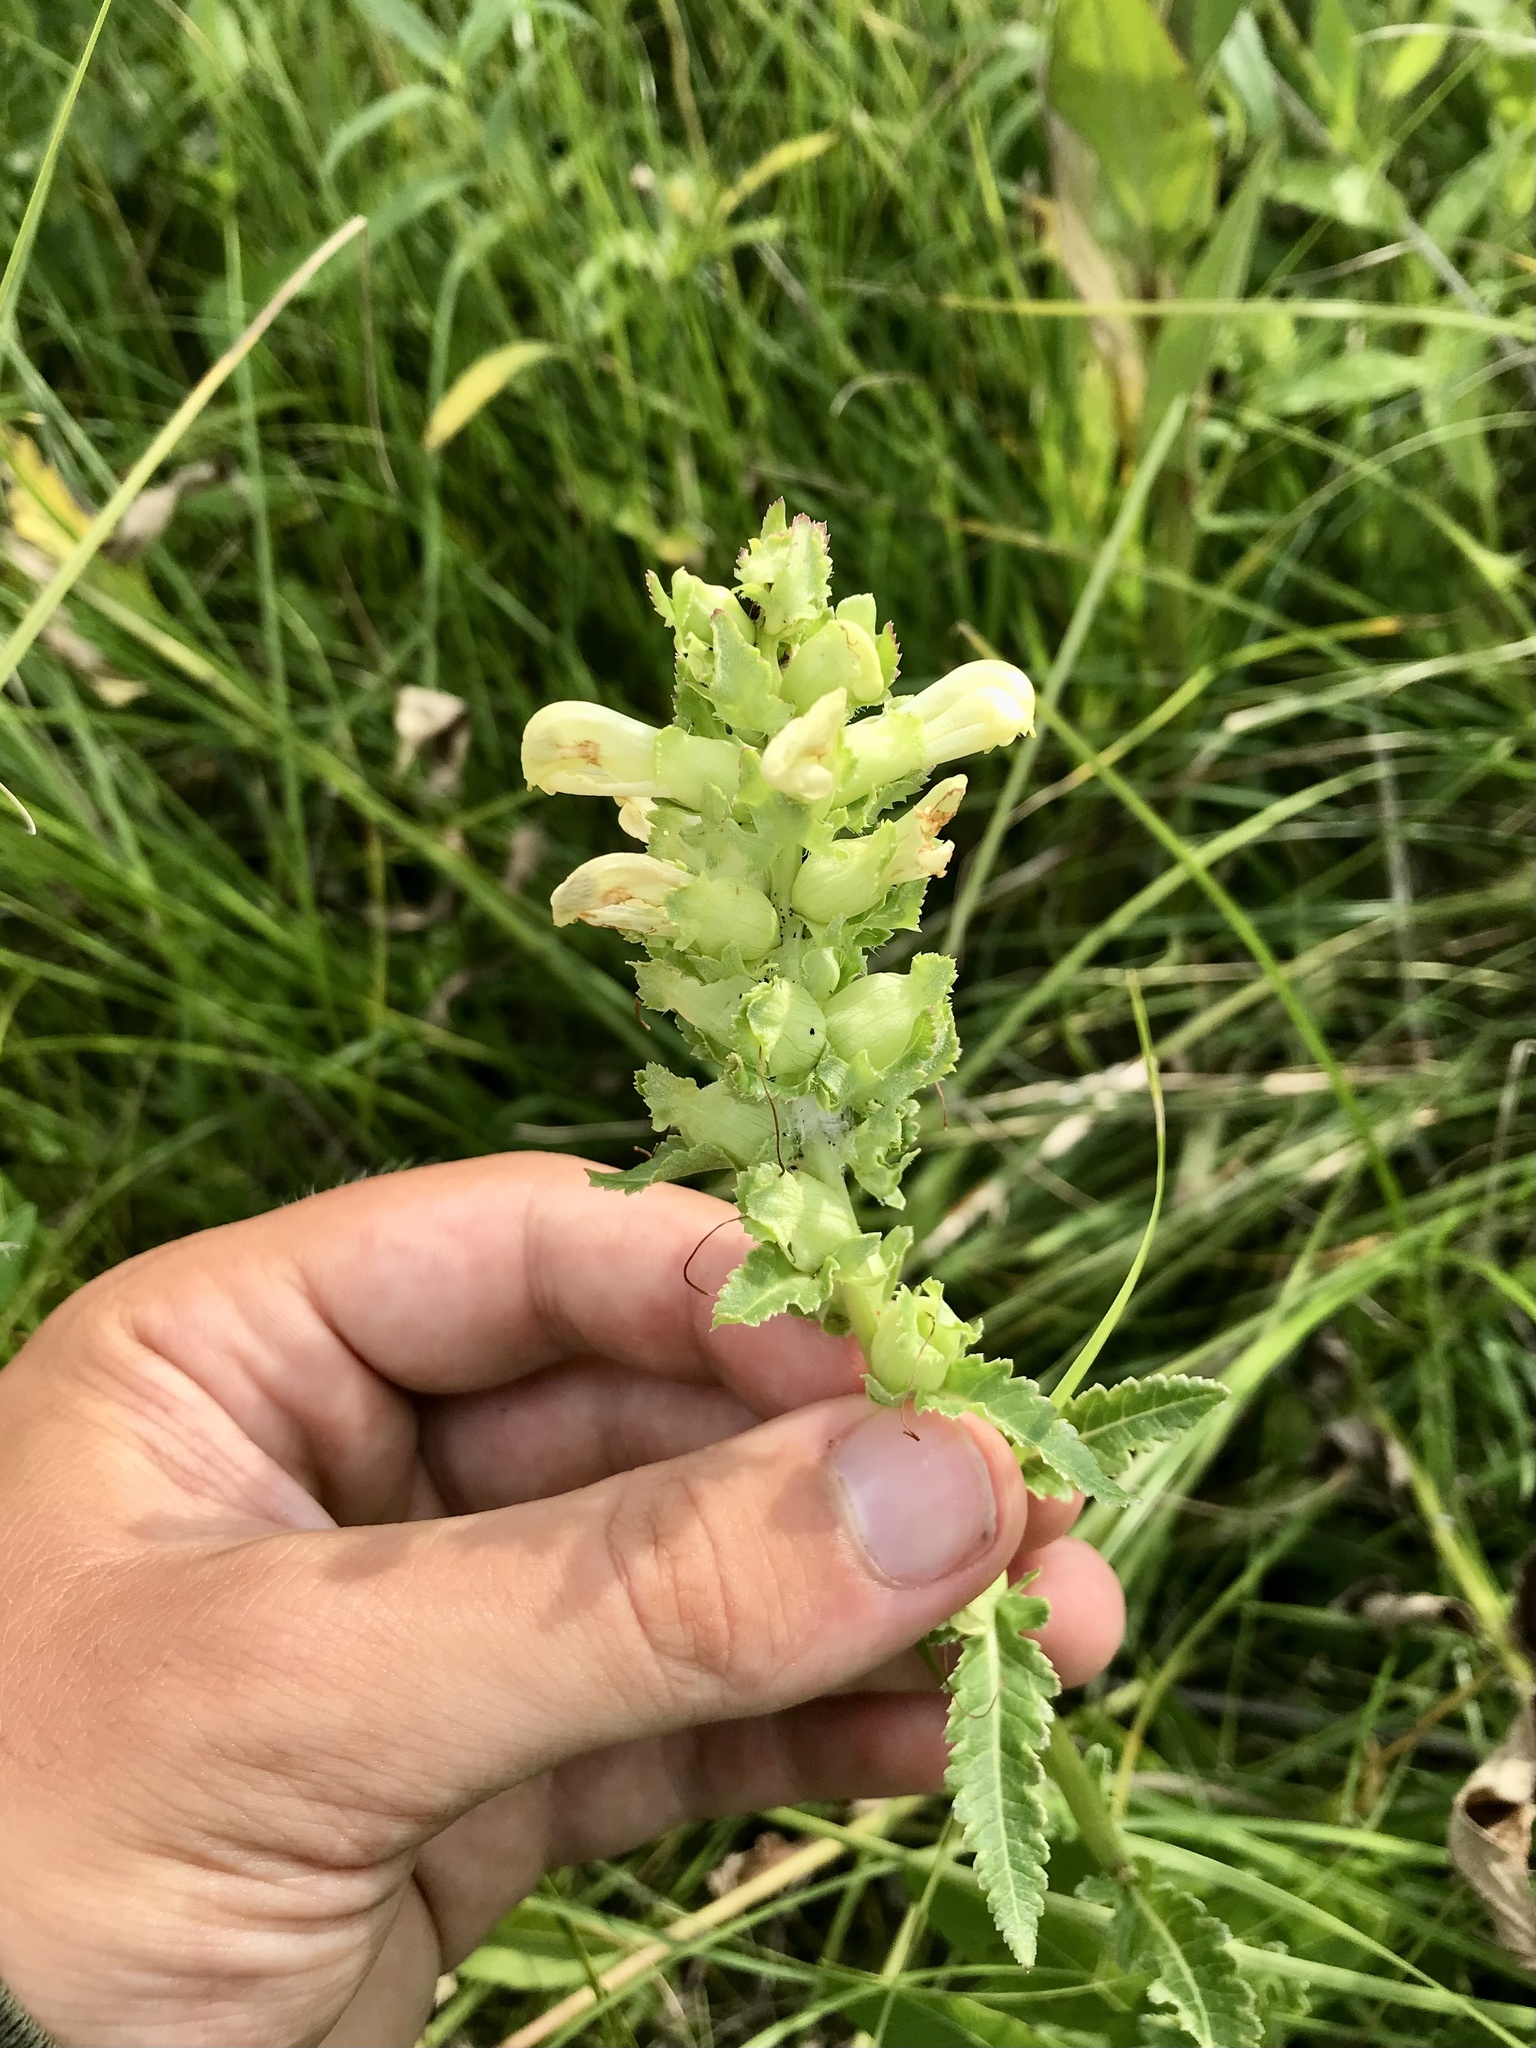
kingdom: Plantae
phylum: Tracheophyta
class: Magnoliopsida
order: Lamiales
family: Orobanchaceae
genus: Pedicularis
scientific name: Pedicularis lanceolata
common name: Swamp lousewort
